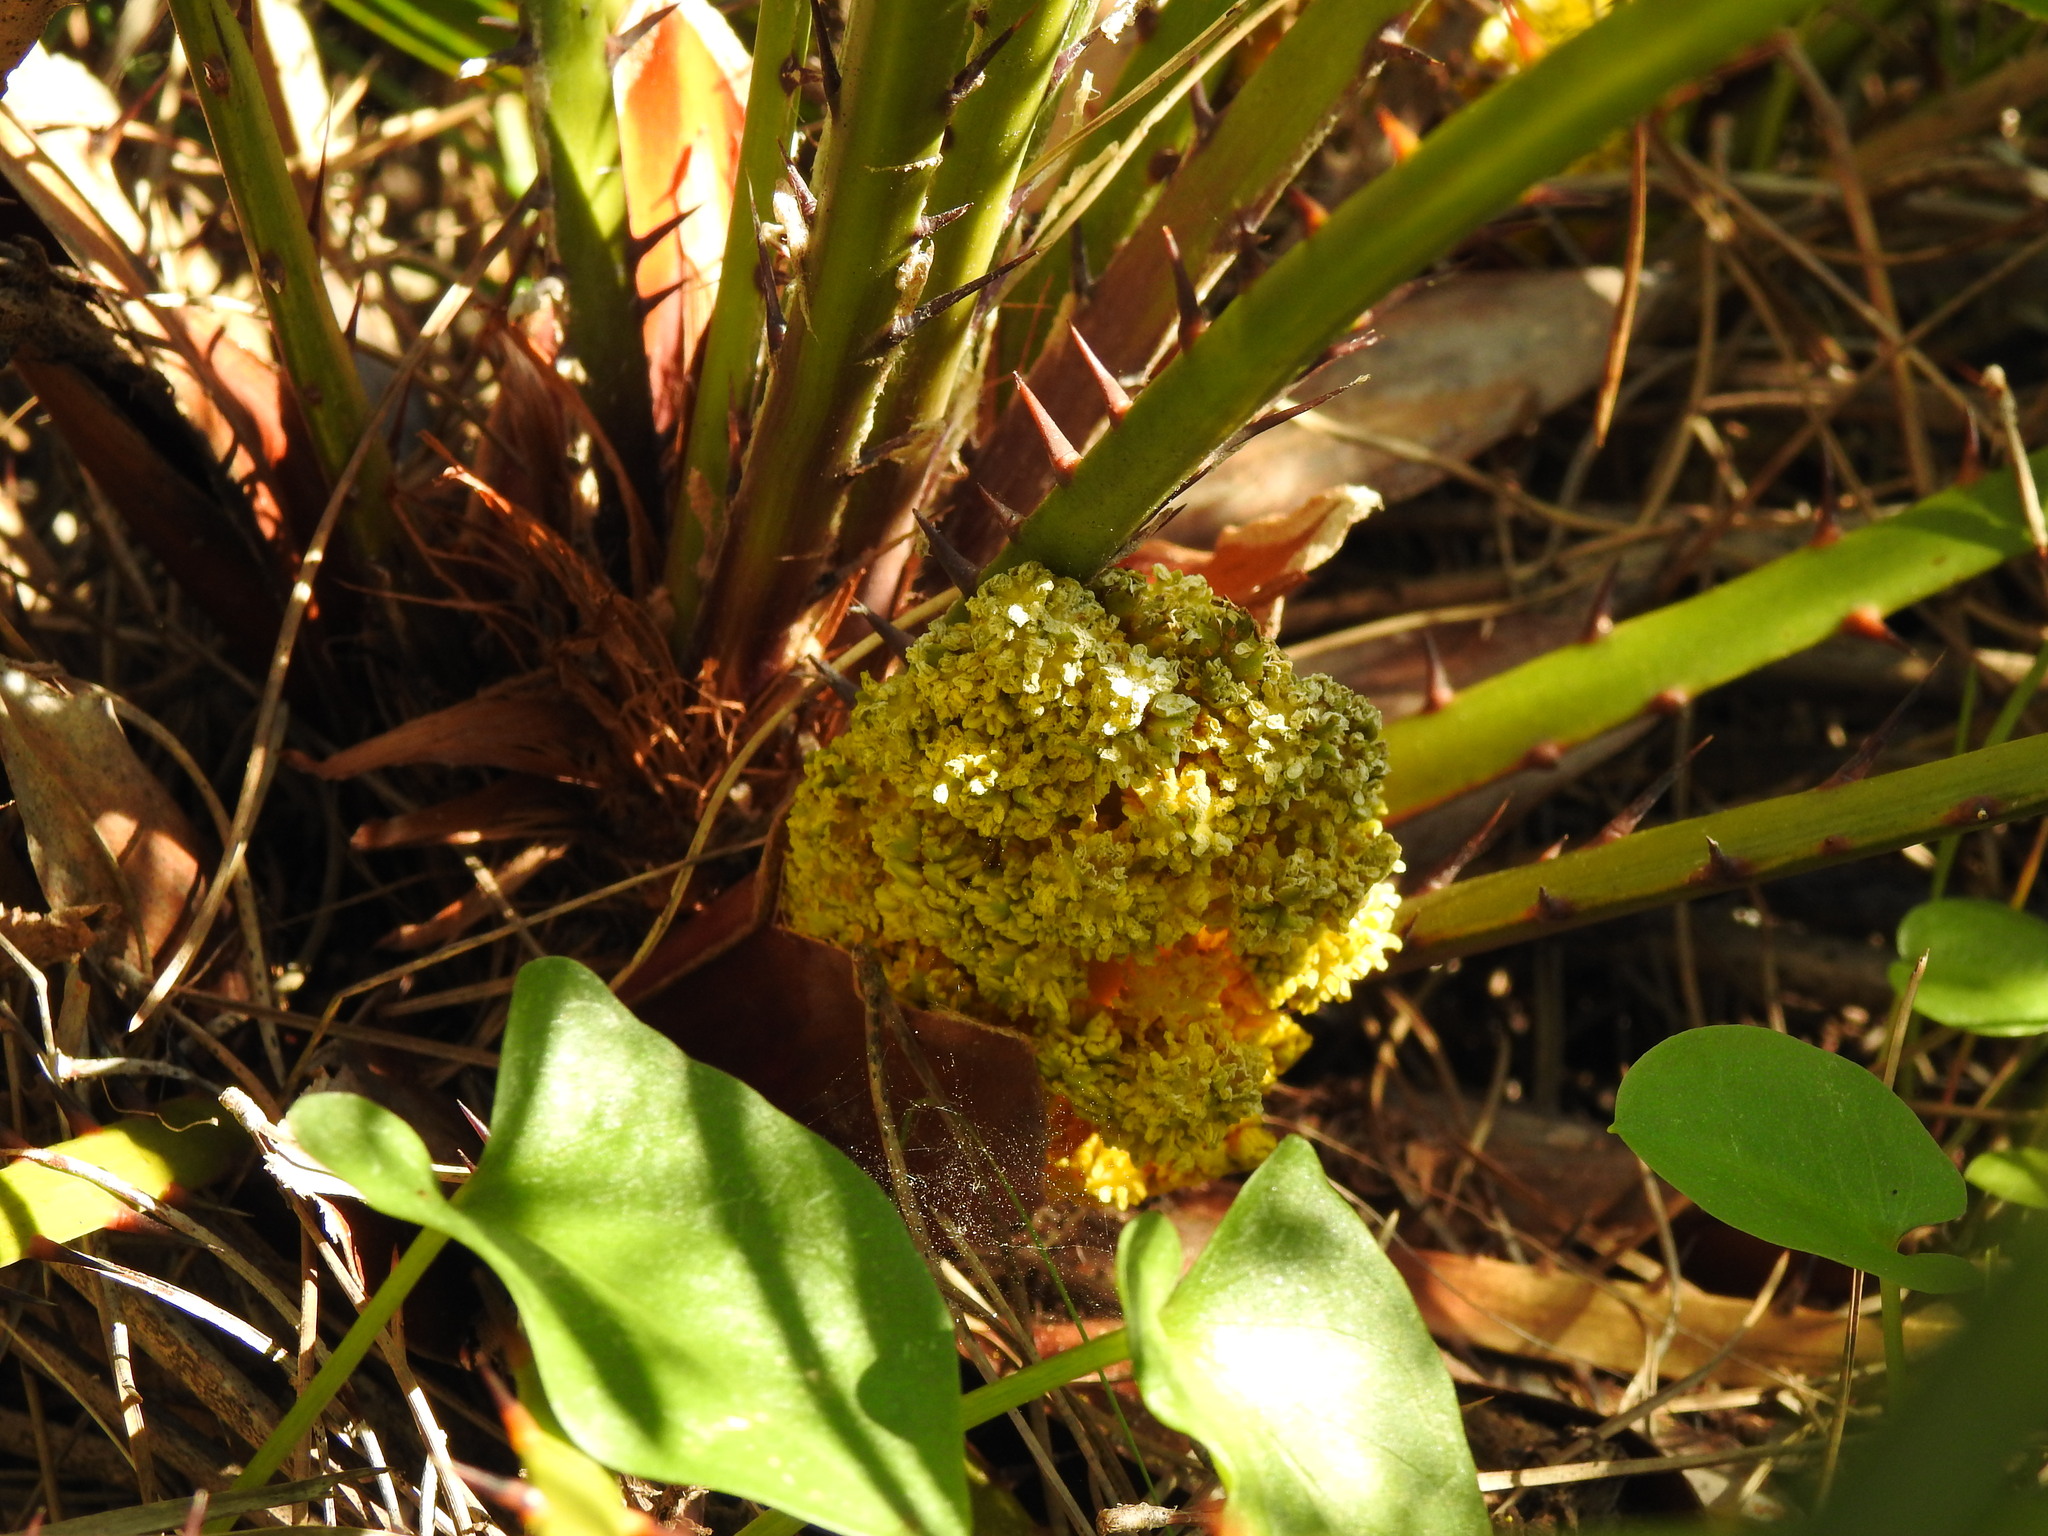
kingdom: Plantae
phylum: Tracheophyta
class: Liliopsida
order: Arecales
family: Arecaceae
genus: Chamaerops
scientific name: Chamaerops humilis
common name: Dwarf fan palm
